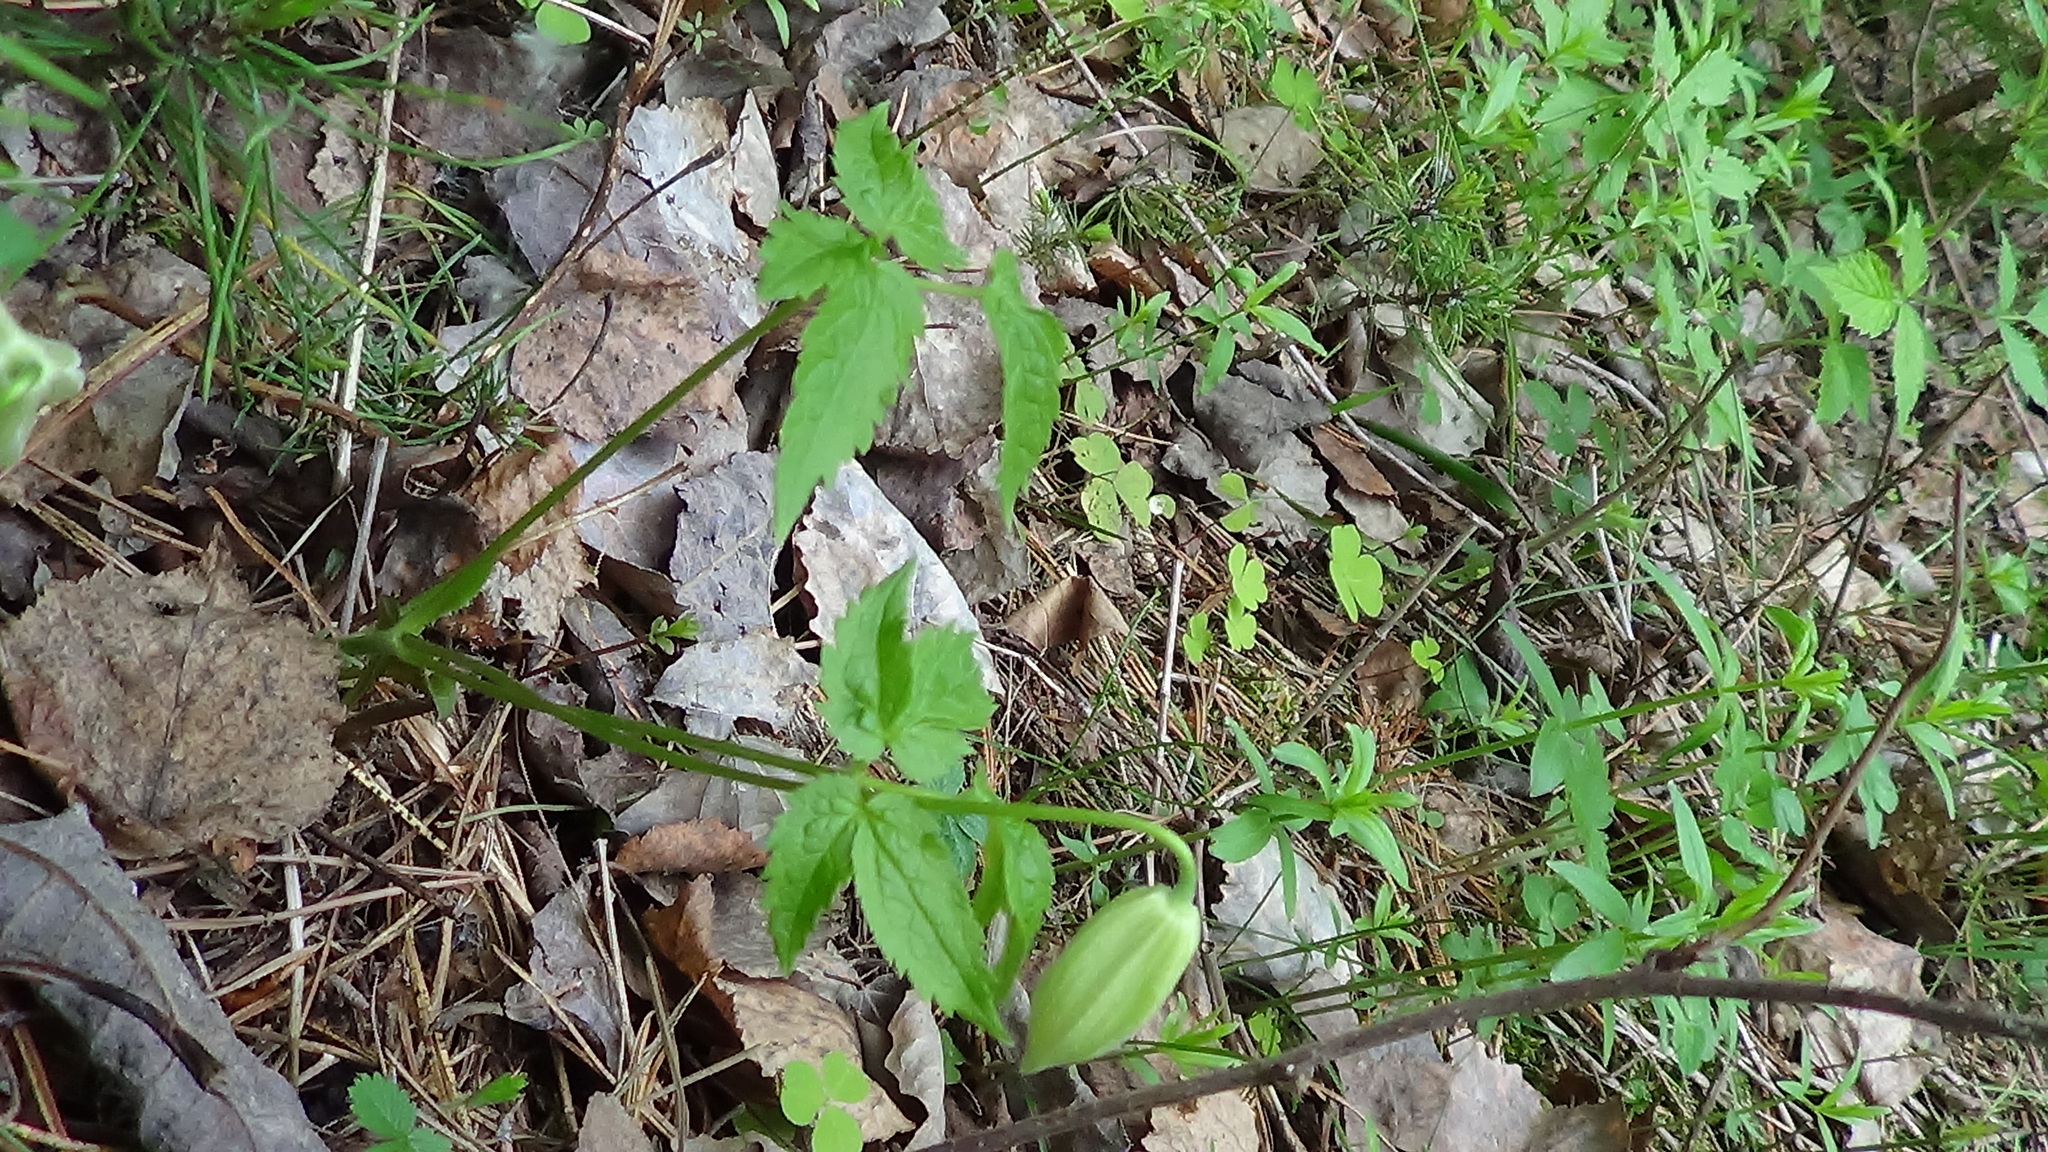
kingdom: Plantae
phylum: Tracheophyta
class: Magnoliopsida
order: Ranunculales
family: Ranunculaceae
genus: Clematis
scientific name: Clematis sibirica
